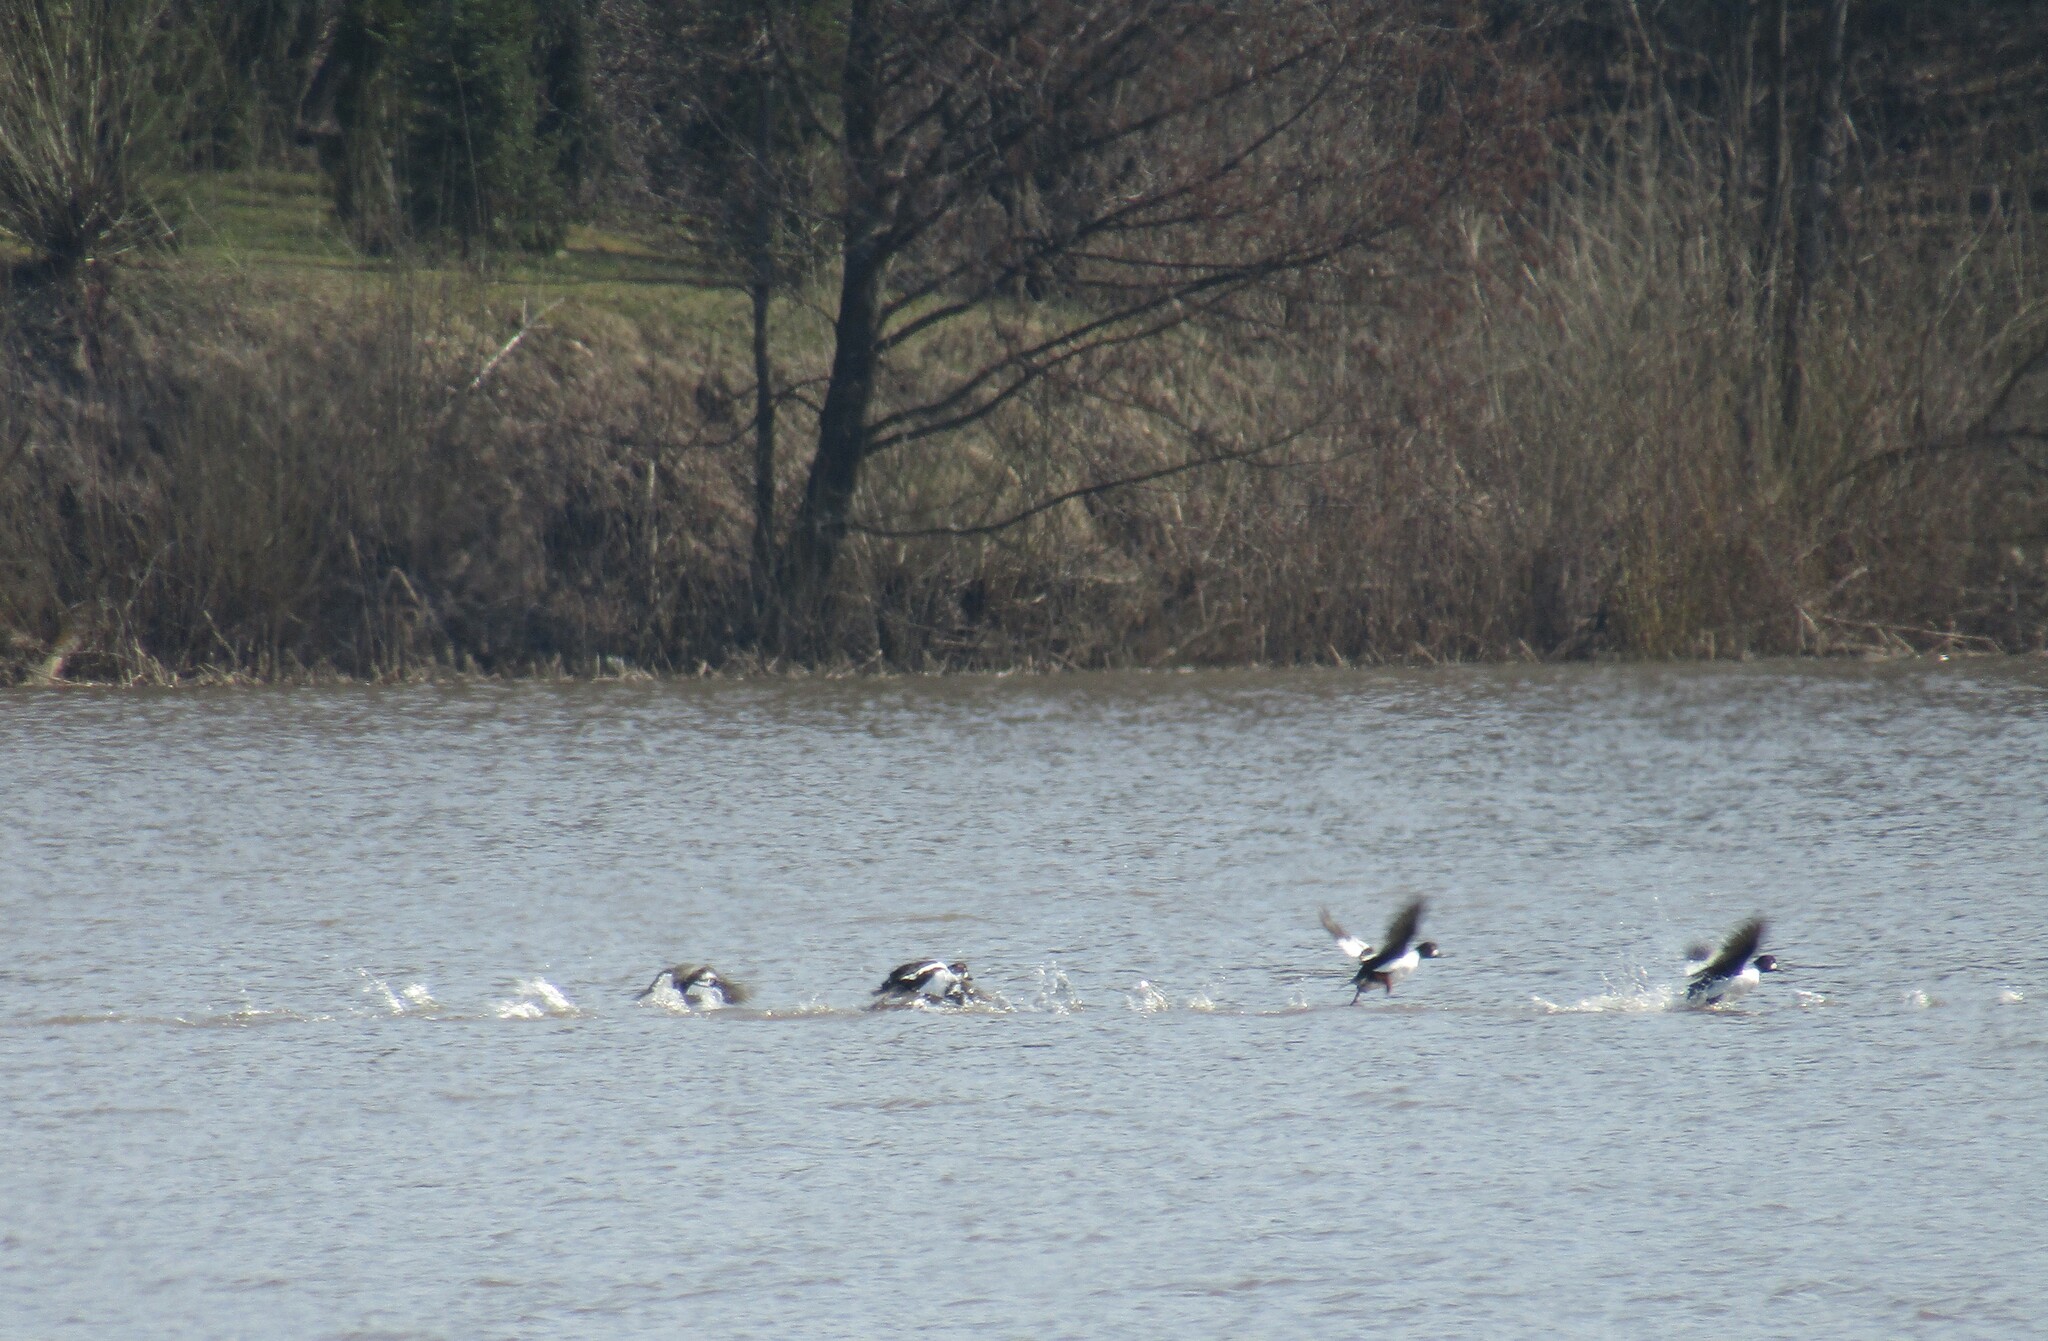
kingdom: Animalia
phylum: Chordata
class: Aves
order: Anseriformes
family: Anatidae
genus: Bucephala
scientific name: Bucephala clangula
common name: Common goldeneye
